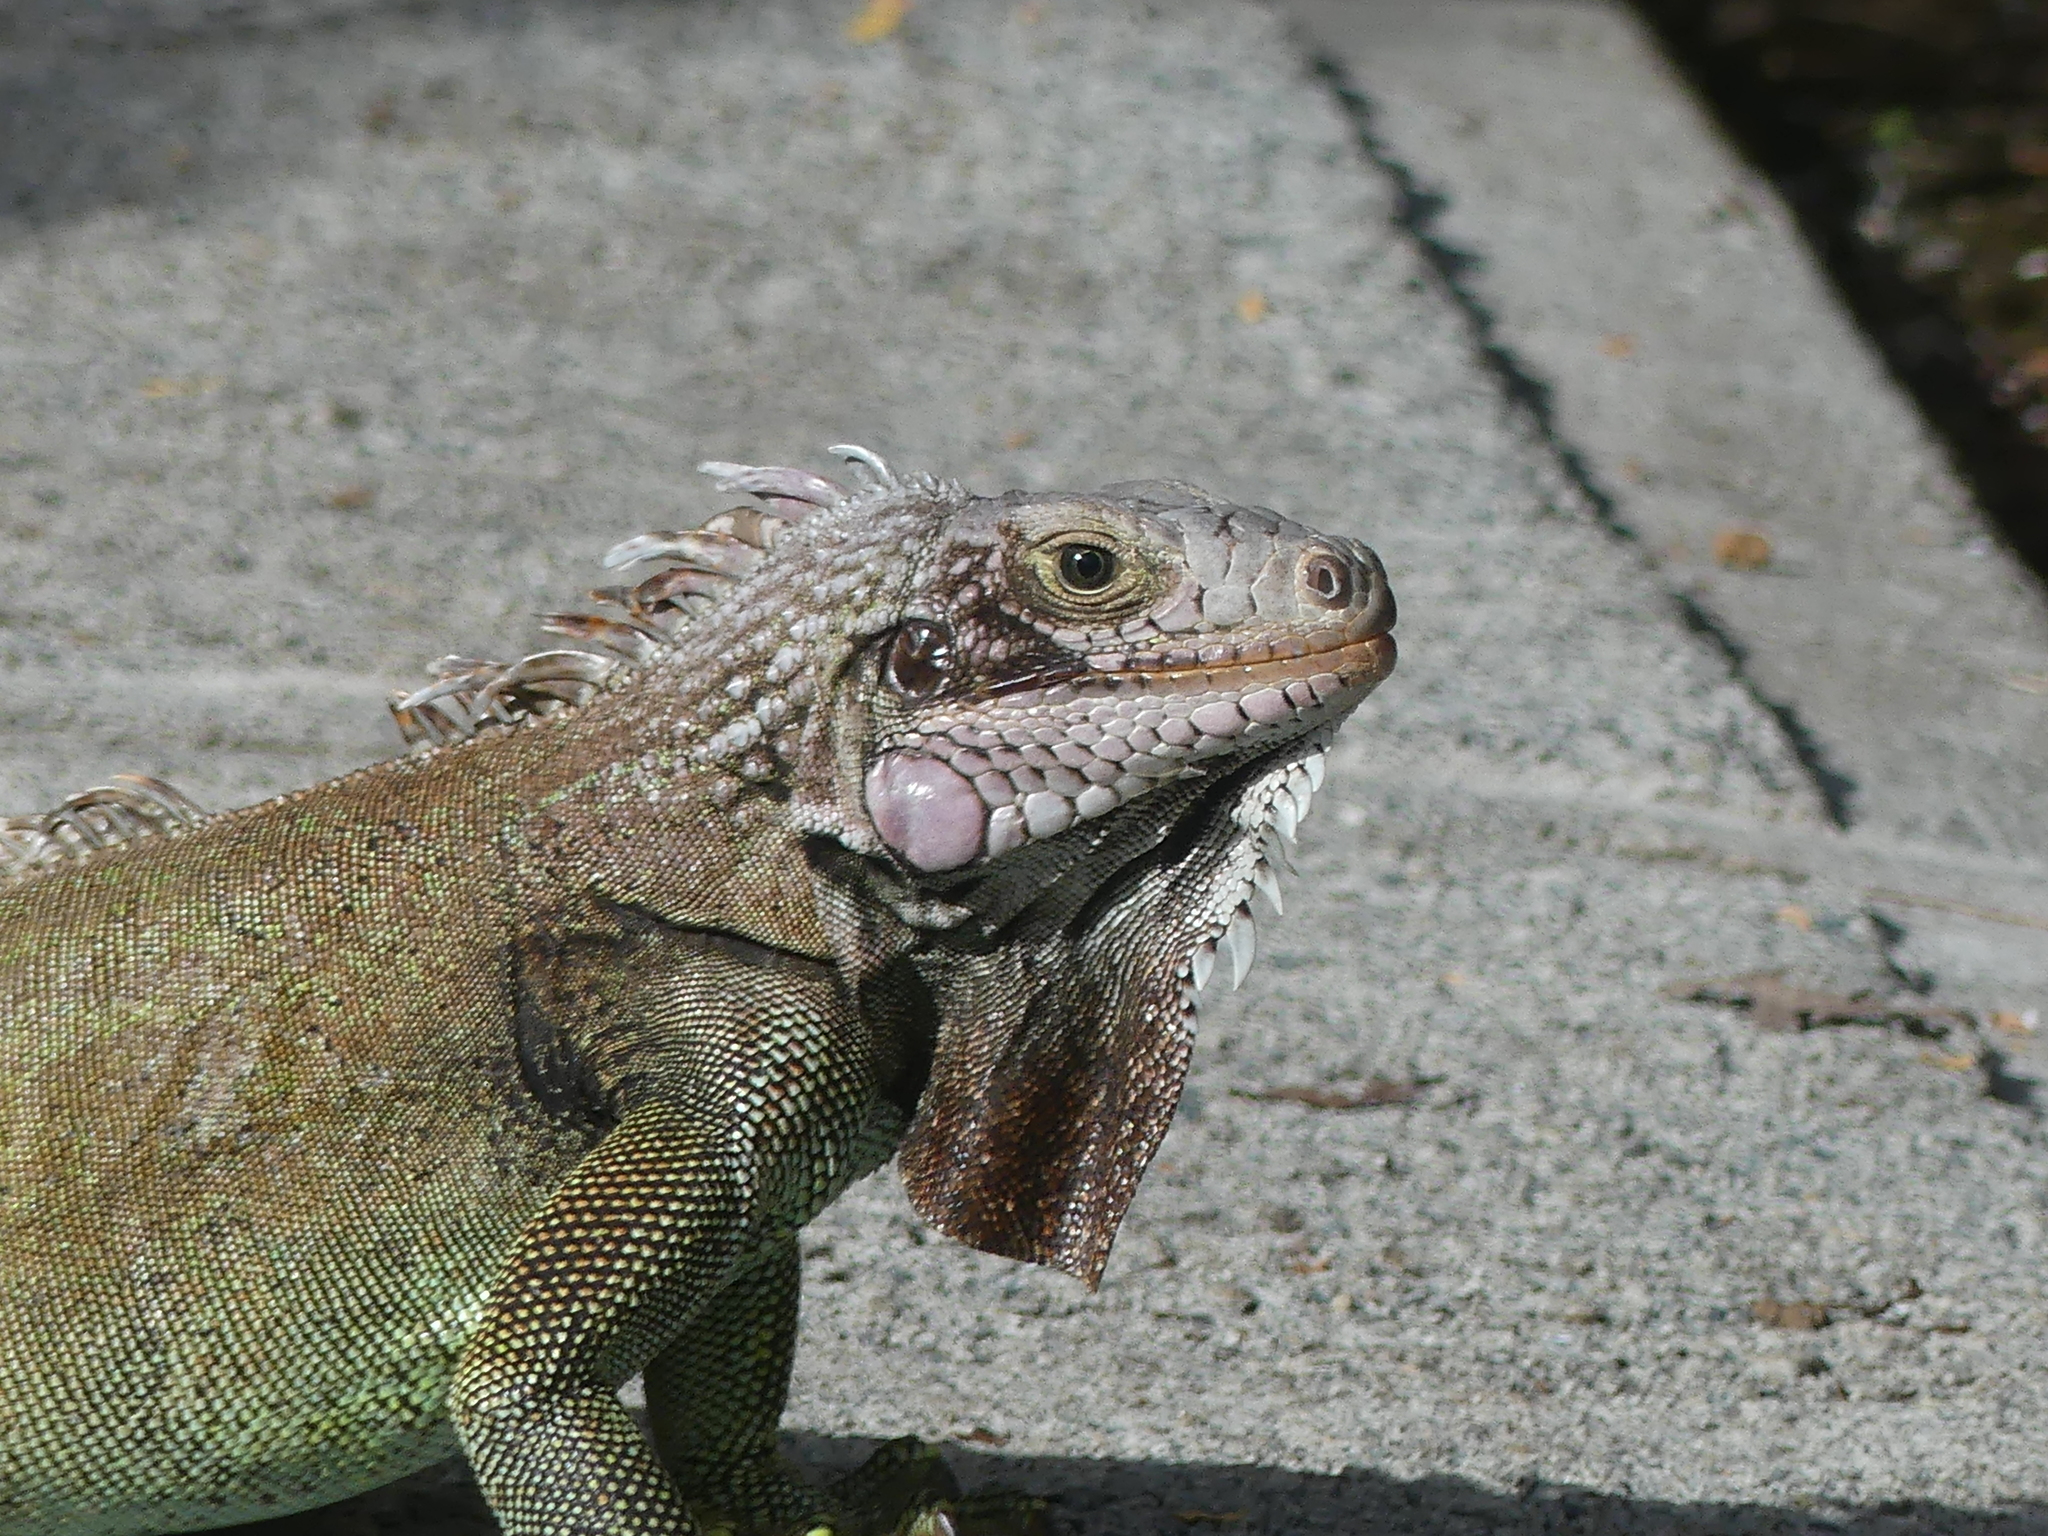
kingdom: Animalia
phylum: Chordata
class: Squamata
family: Iguanidae
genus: Iguana
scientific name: Iguana iguana
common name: Green iguana
